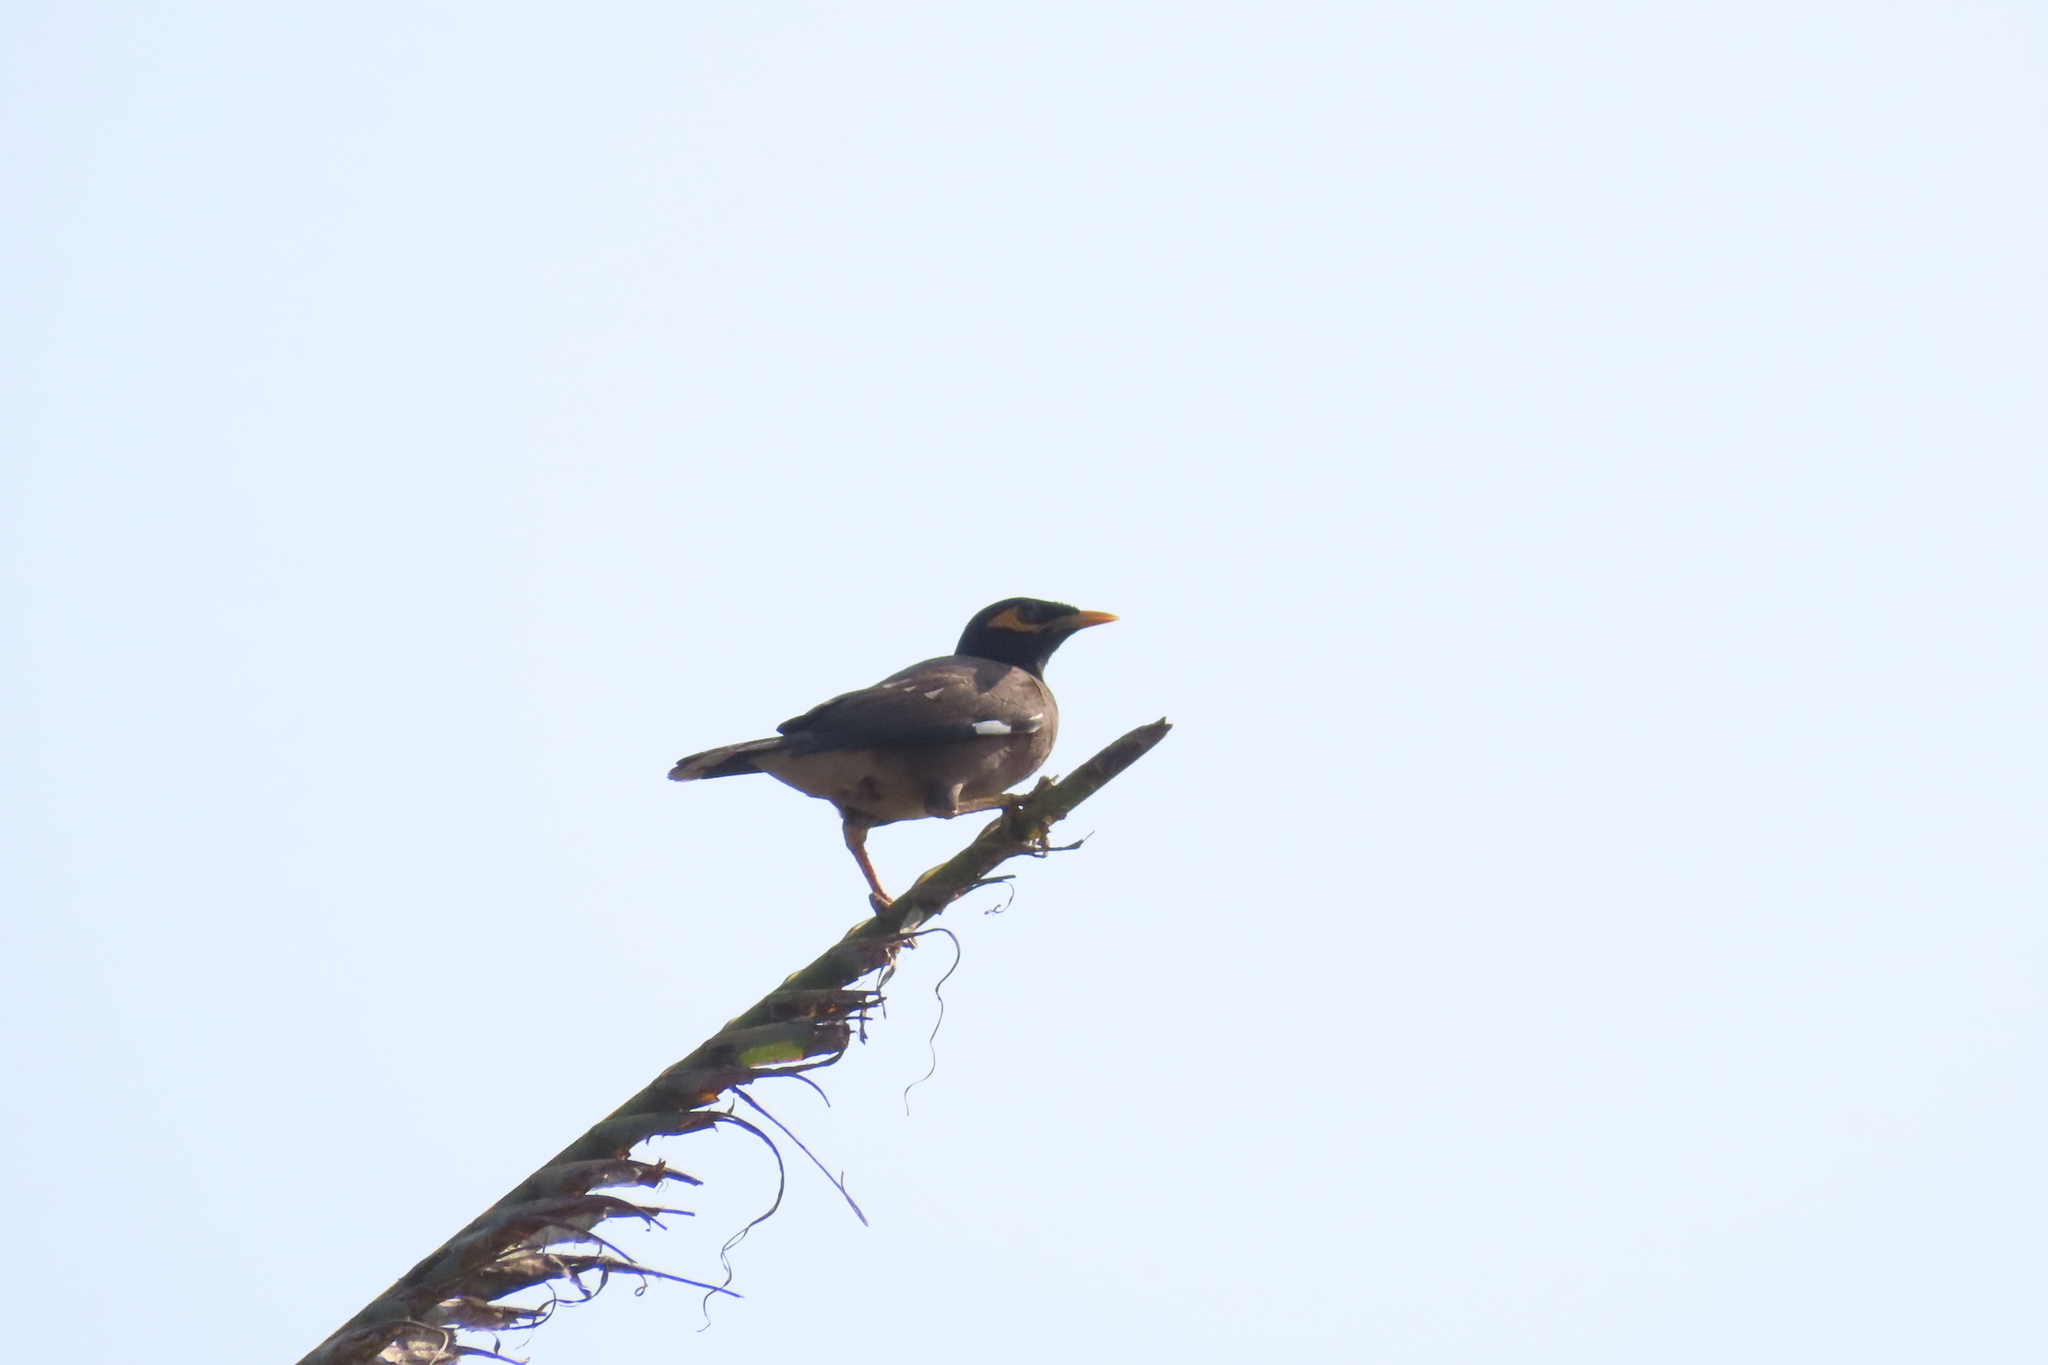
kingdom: Animalia
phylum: Chordata
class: Aves
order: Passeriformes
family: Sturnidae
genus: Acridotheres
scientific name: Acridotheres tristis
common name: Common myna
